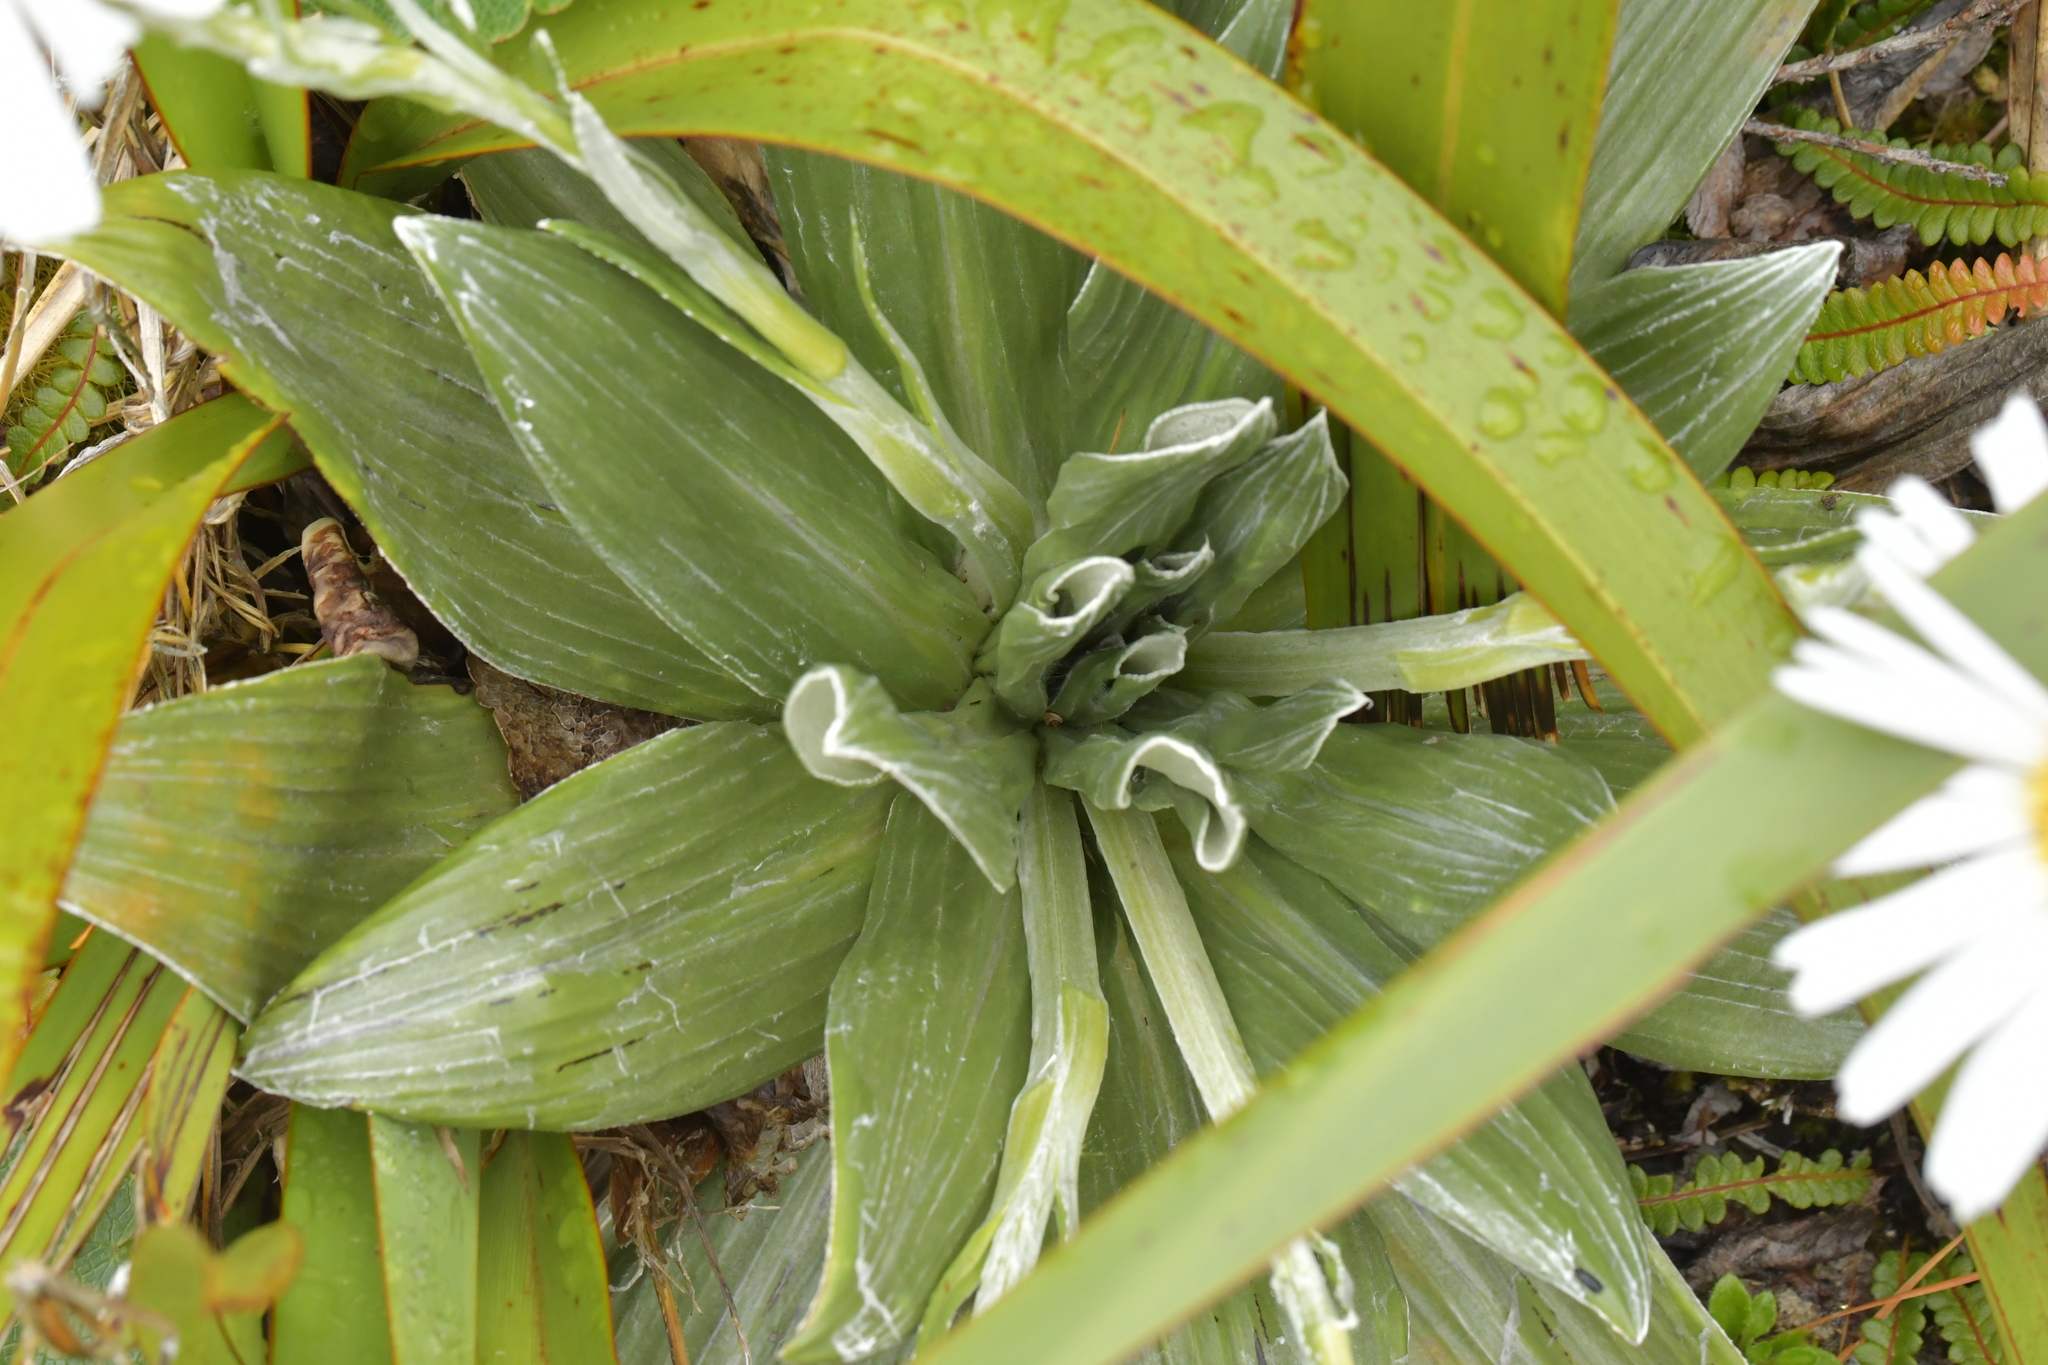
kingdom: Plantae
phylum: Tracheophyta
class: Magnoliopsida
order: Asterales
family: Asteraceae
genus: Celmisia
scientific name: Celmisia semicordata
